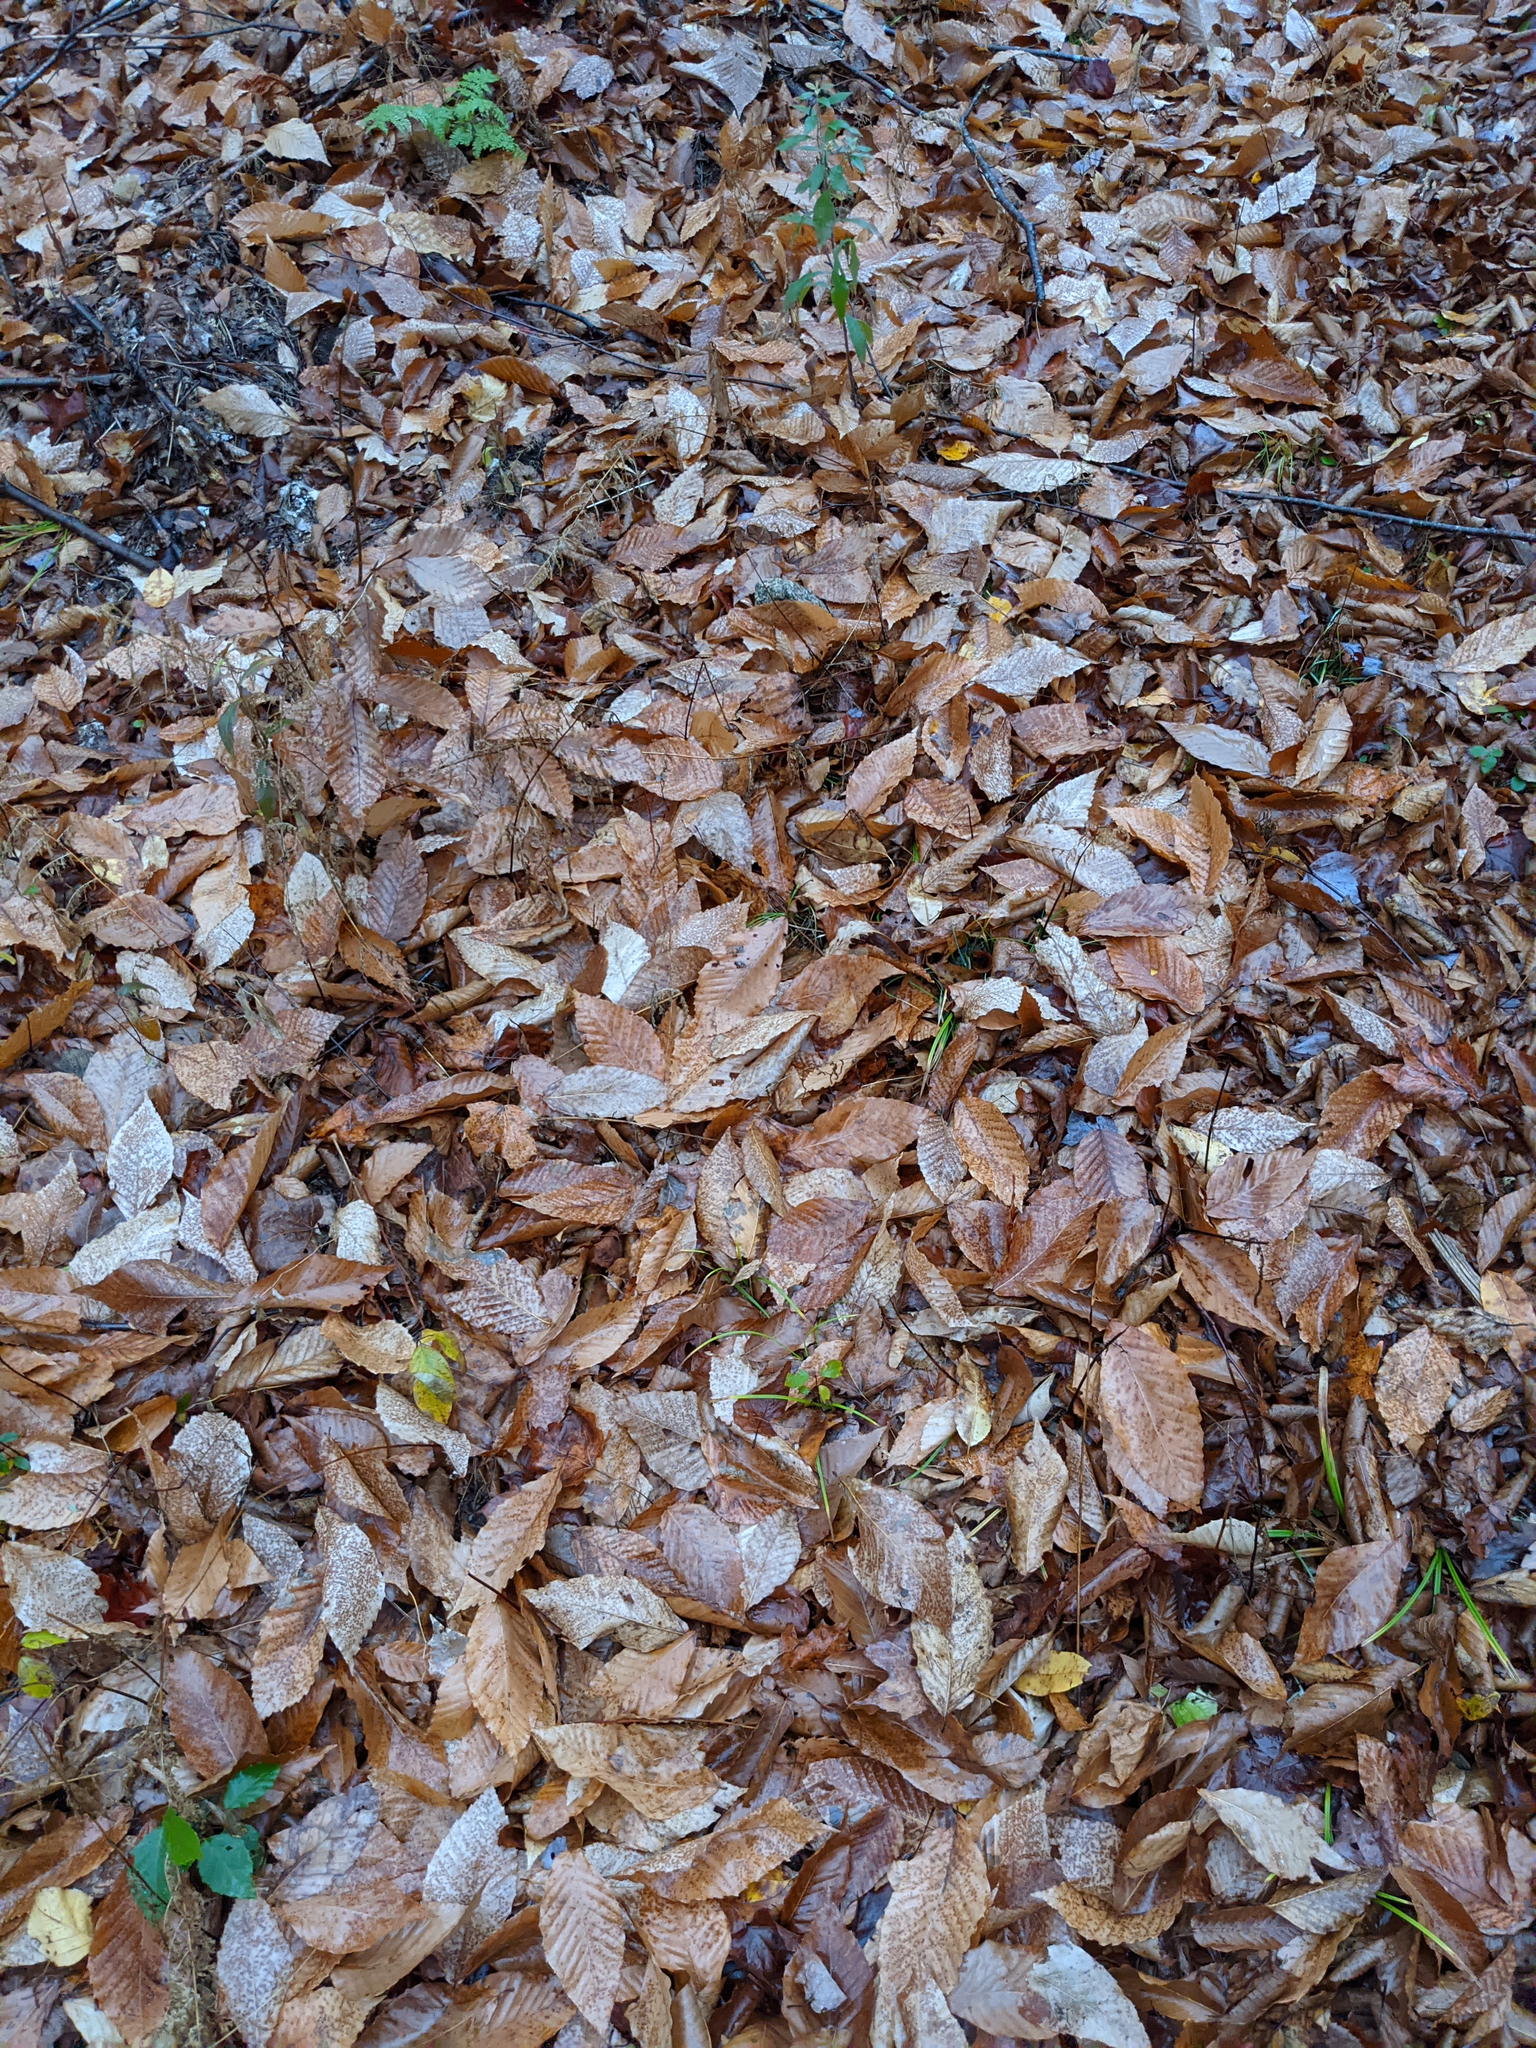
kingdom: Plantae
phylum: Tracheophyta
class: Magnoliopsida
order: Fagales
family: Fagaceae
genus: Fagus
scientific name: Fagus grandifolia
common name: American beech
